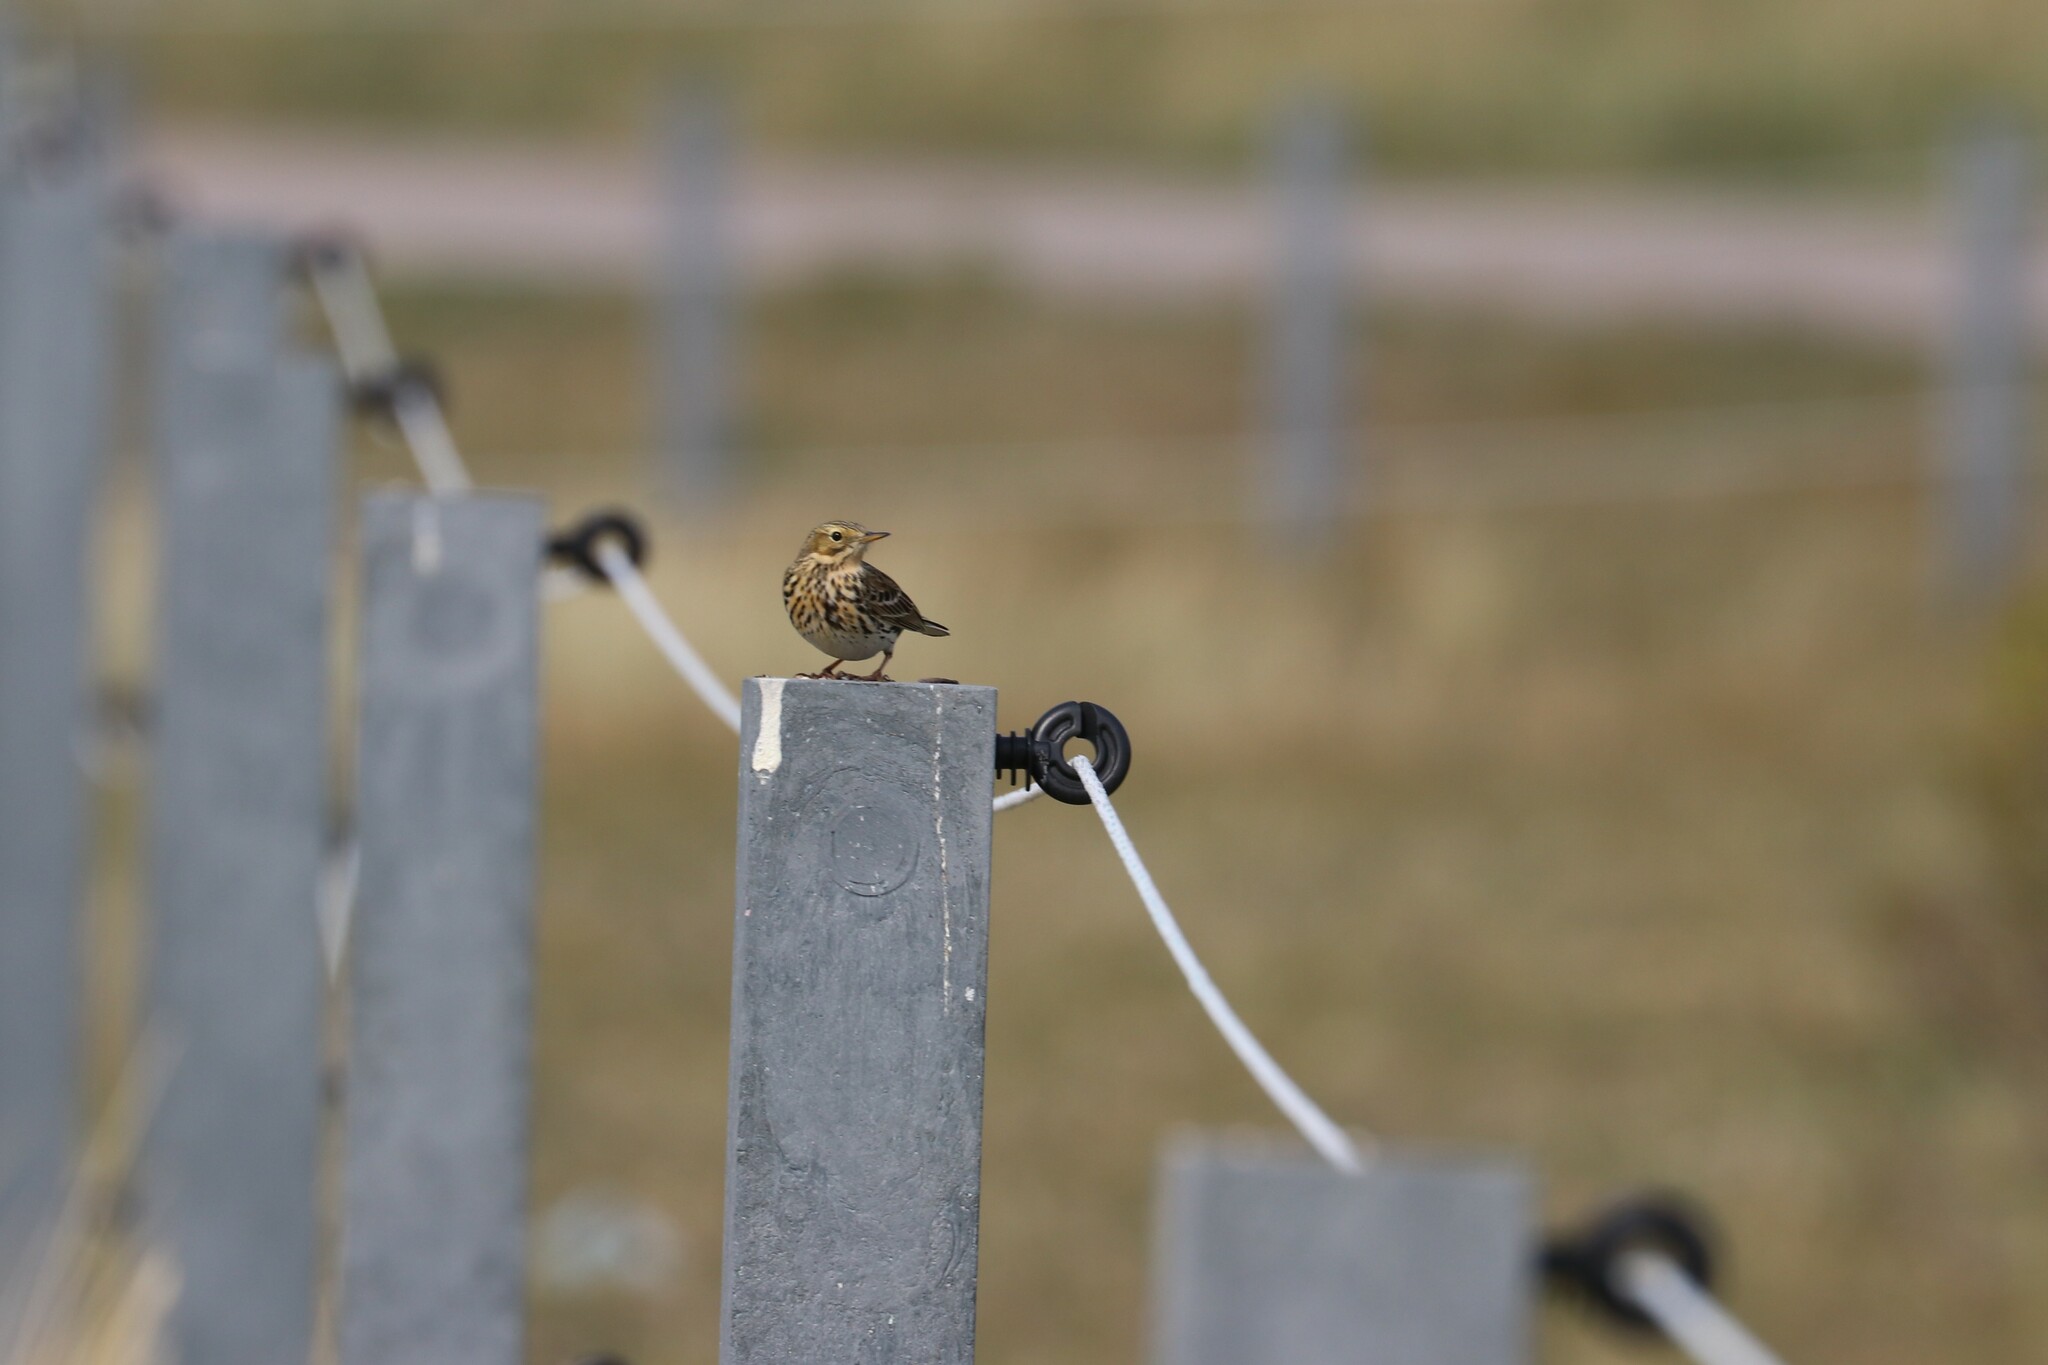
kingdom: Animalia
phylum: Chordata
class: Aves
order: Passeriformes
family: Motacillidae
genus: Anthus
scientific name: Anthus pratensis
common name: Meadow pipit
